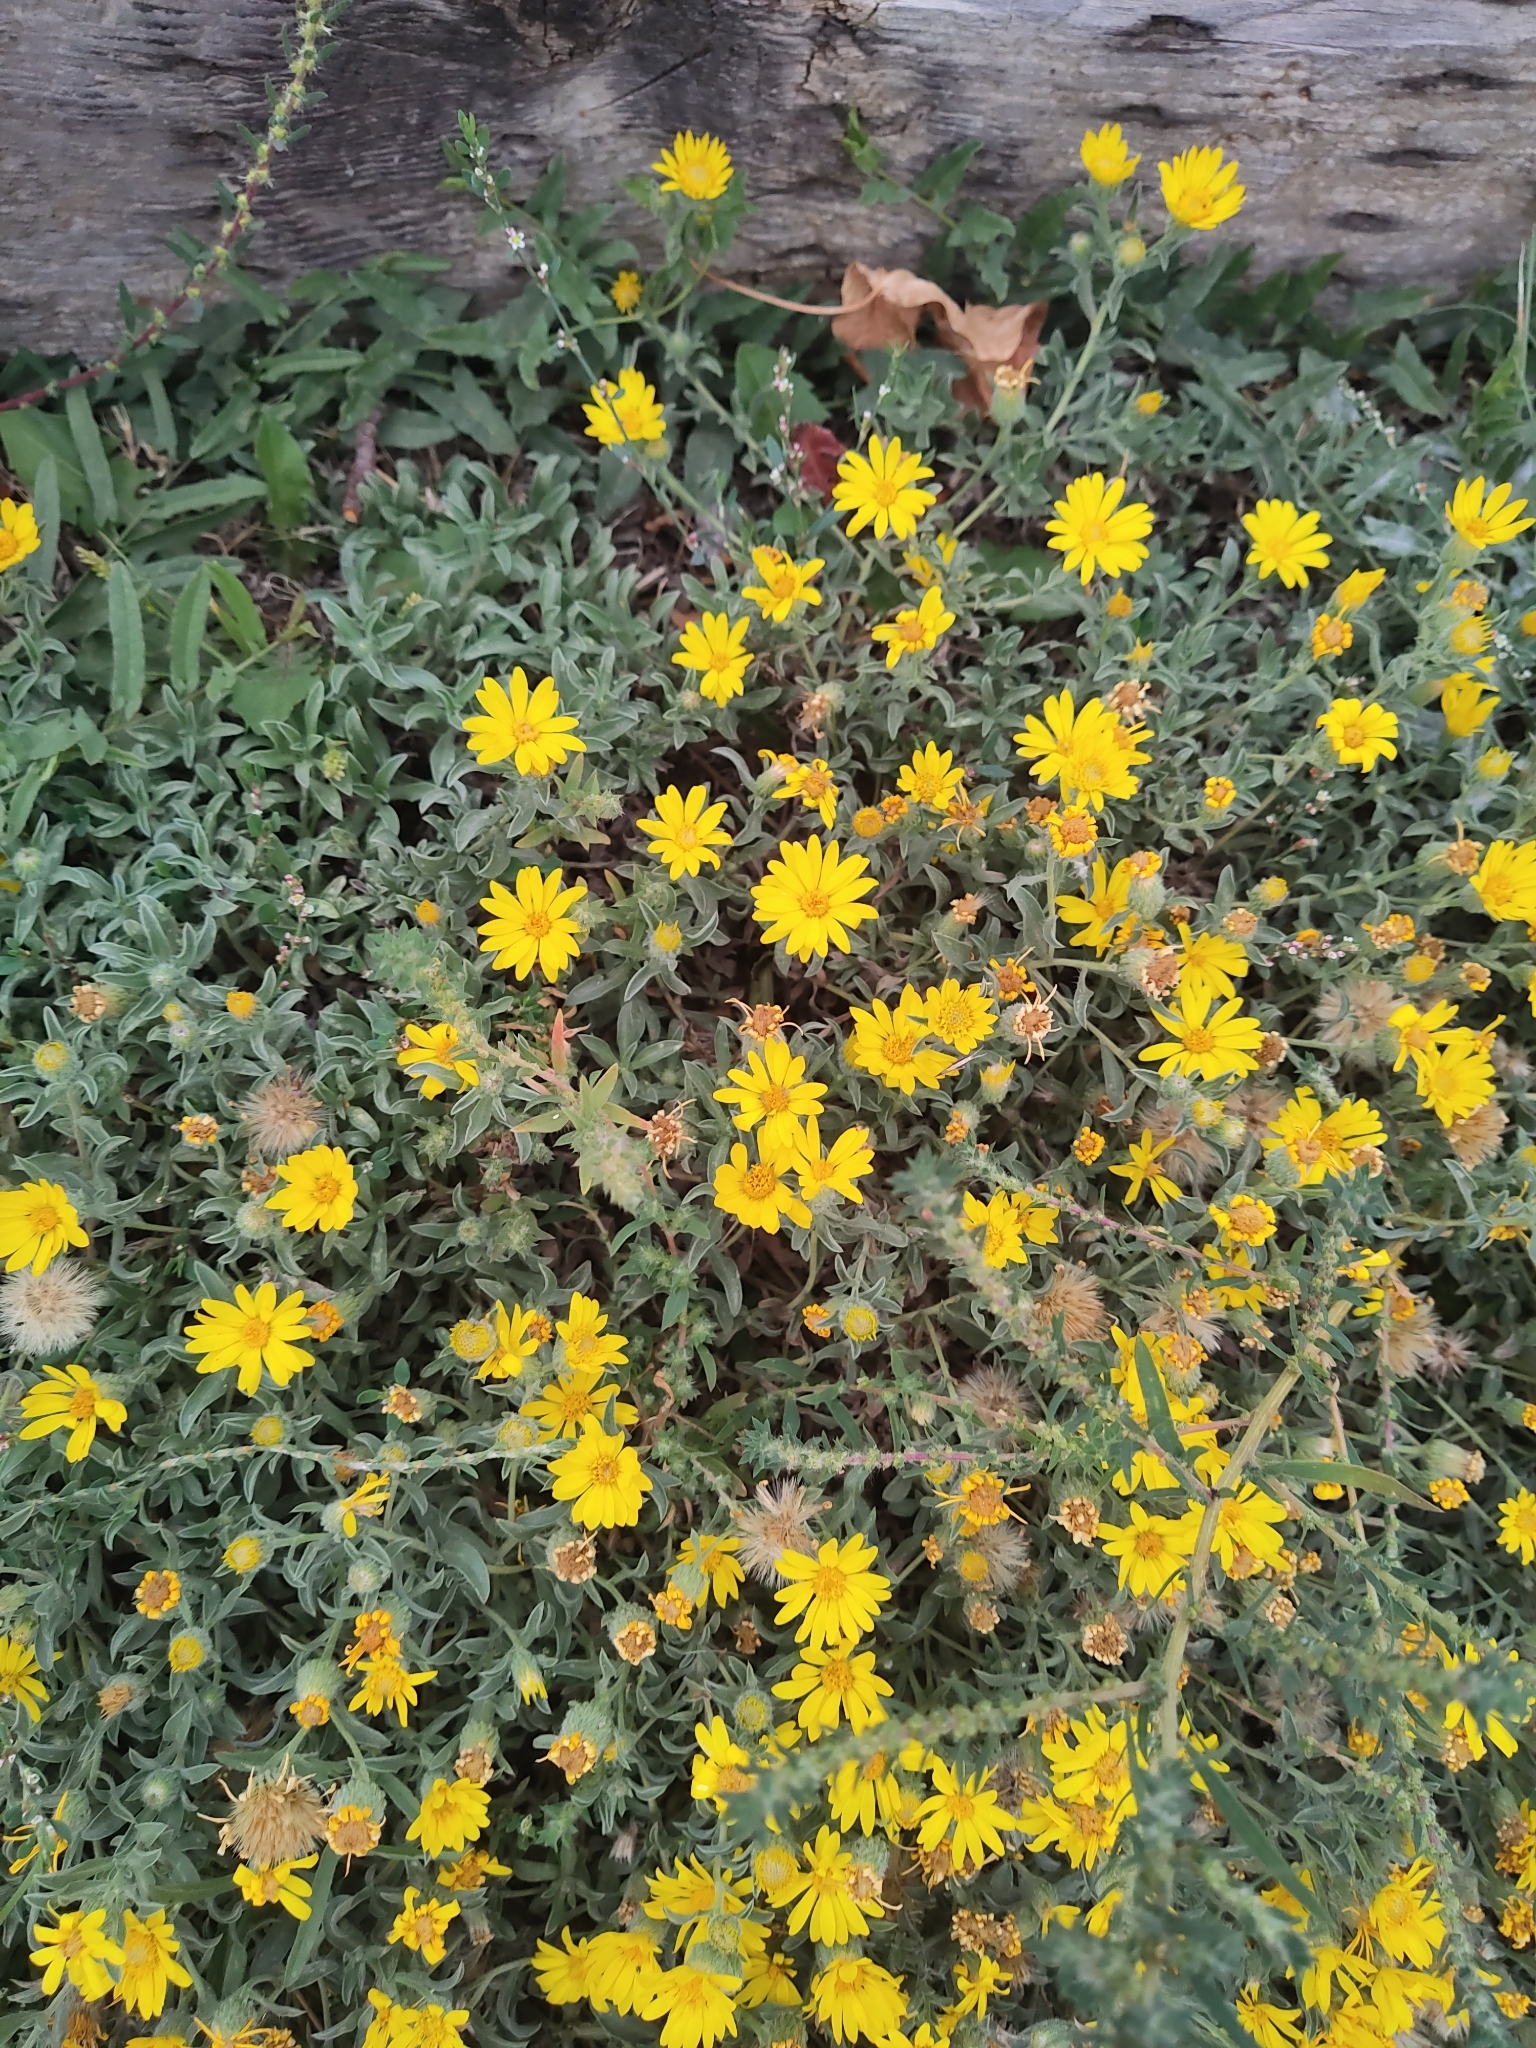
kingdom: Plantae
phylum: Tracheophyta
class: Magnoliopsida
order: Asterales
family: Asteraceae
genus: Heterotheca
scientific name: Heterotheca villosa
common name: Hairy false goldenaster
